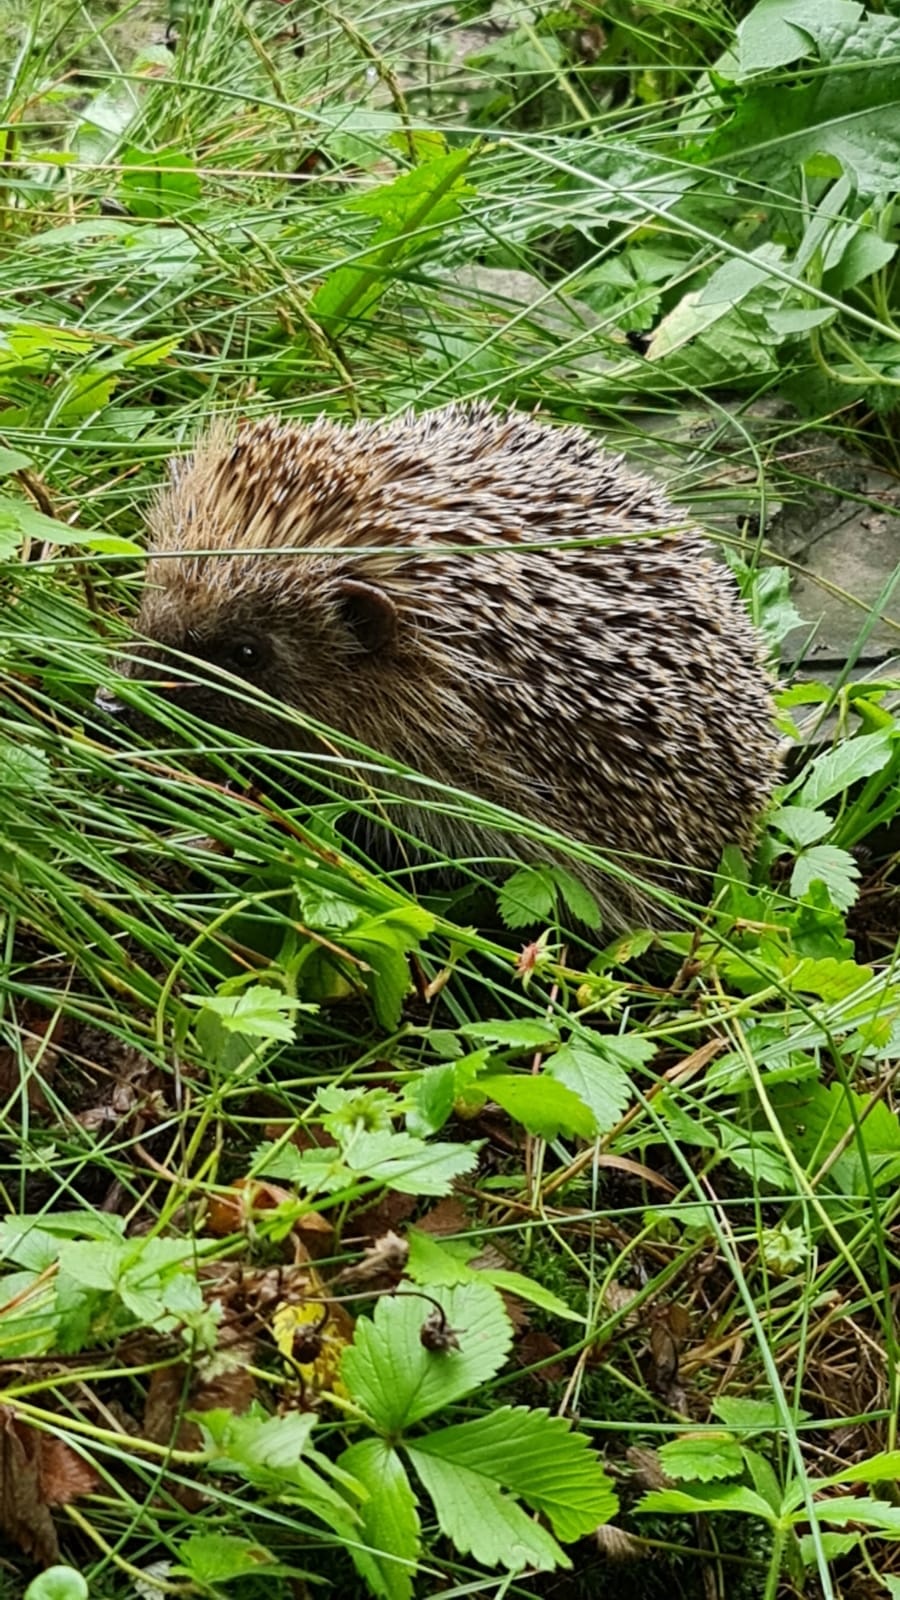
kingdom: Animalia
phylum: Chordata
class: Mammalia
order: Erinaceomorpha
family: Erinaceidae
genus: Erinaceus
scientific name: Erinaceus europaeus
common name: West european hedgehog
